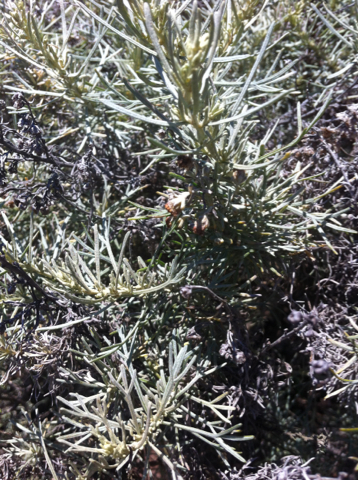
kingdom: Plantae
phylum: Tracheophyta
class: Magnoliopsida
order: Asterales
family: Asteraceae
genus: Artemisia
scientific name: Artemisia californica
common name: California sagebrush
